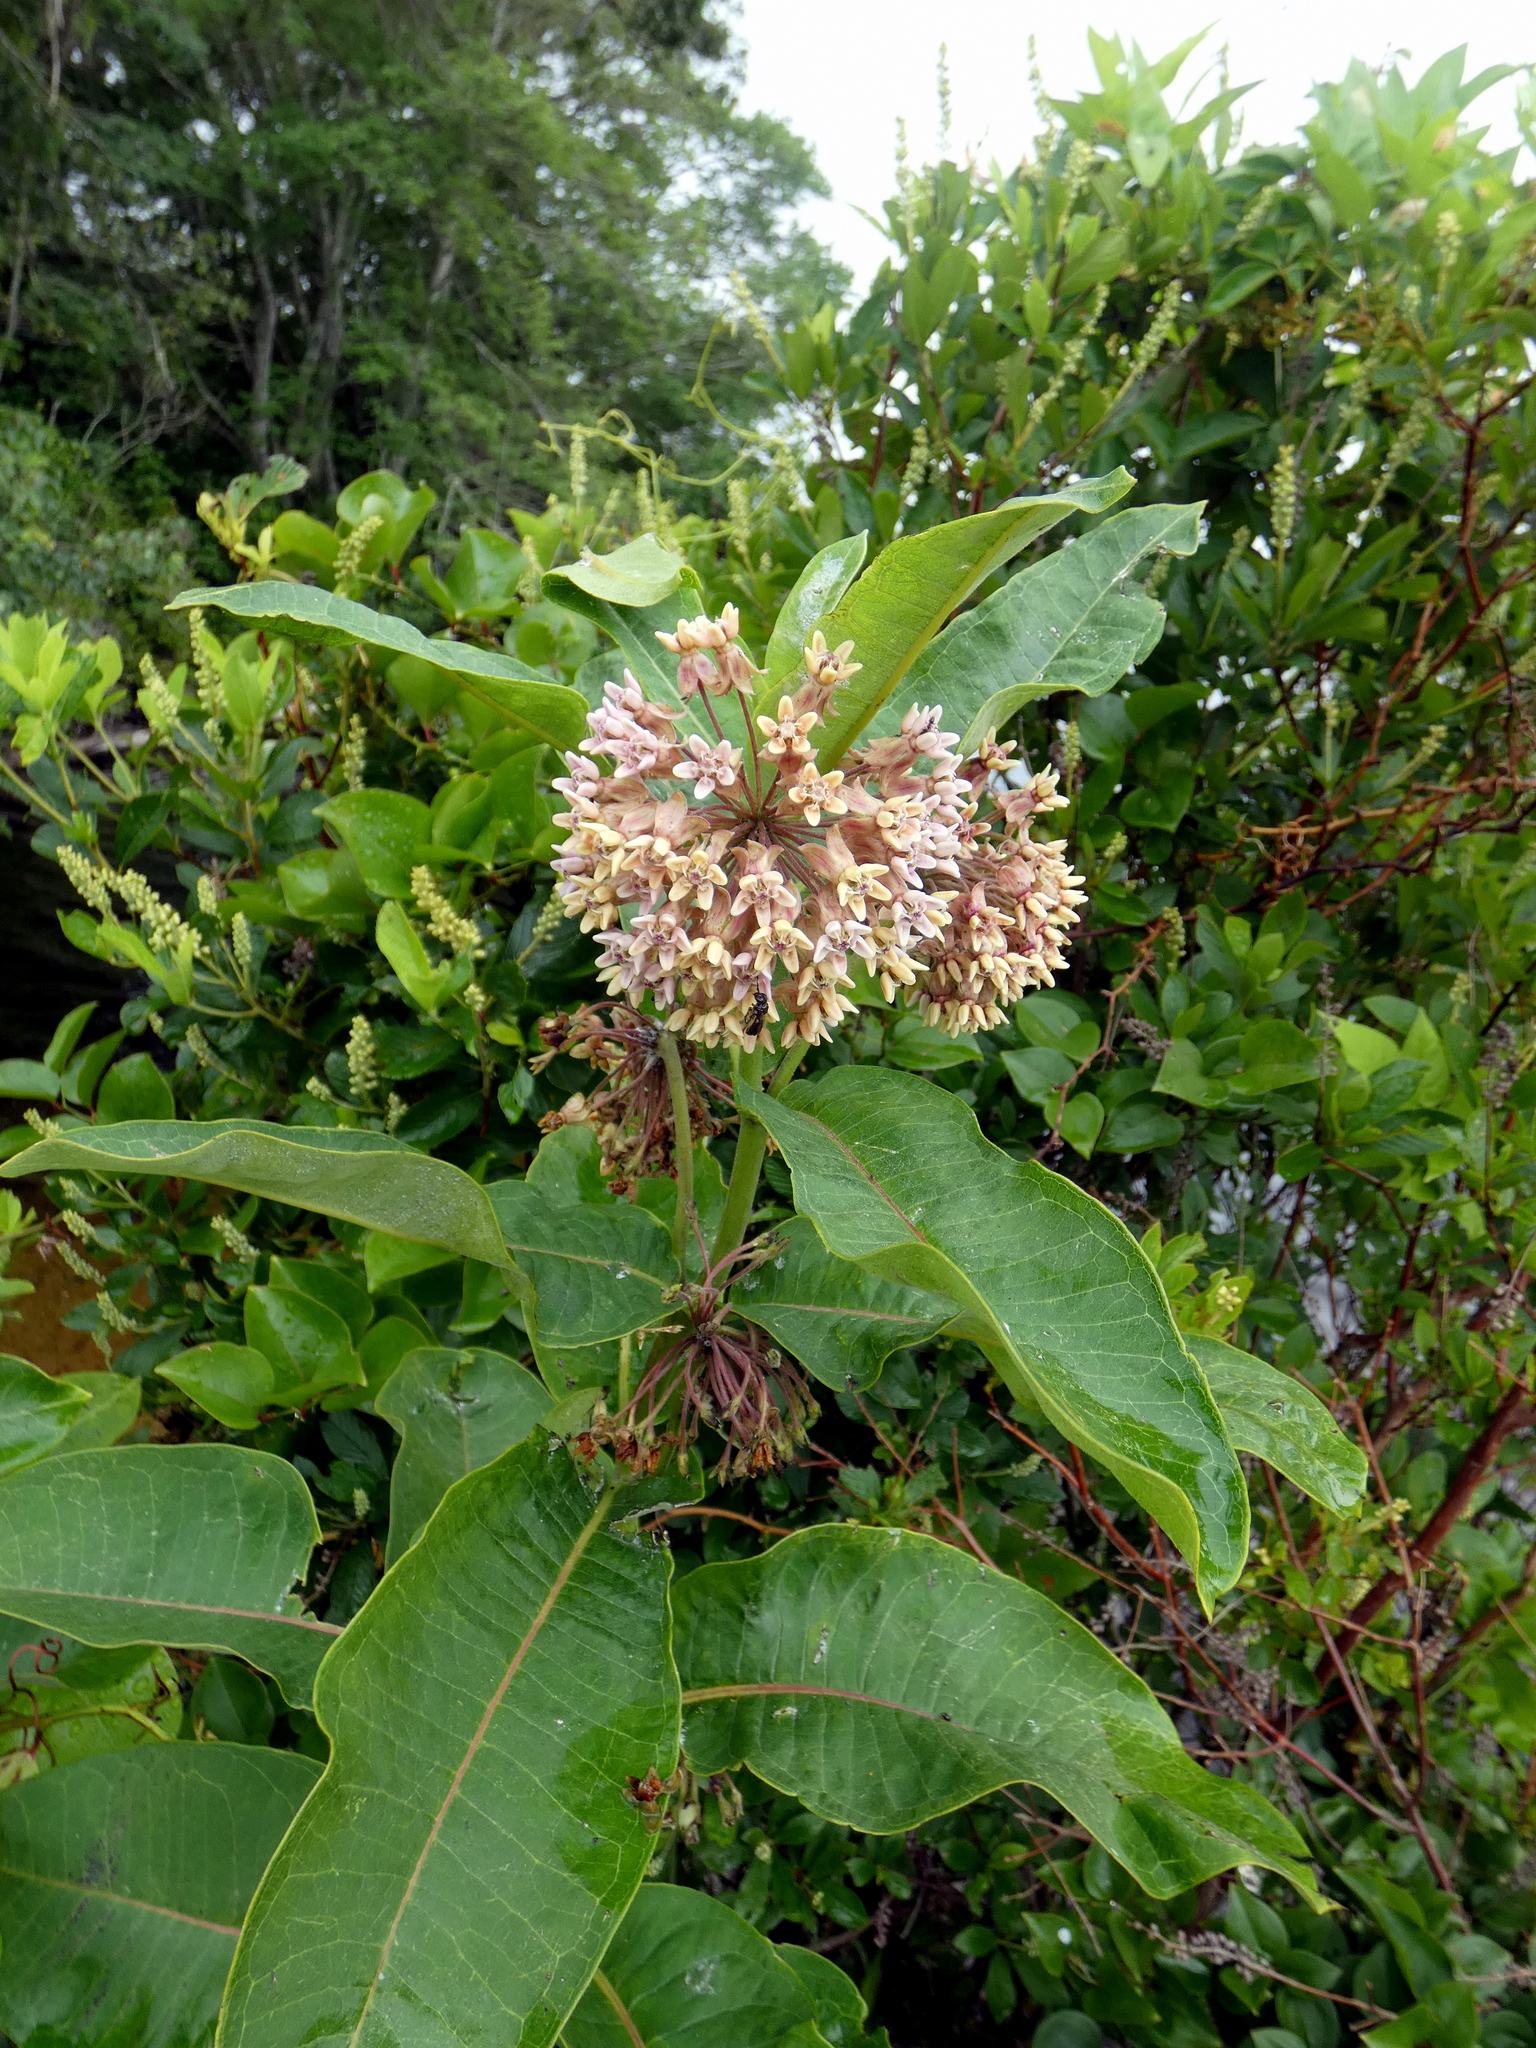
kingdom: Plantae
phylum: Tracheophyta
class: Magnoliopsida
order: Gentianales
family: Apocynaceae
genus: Asclepias
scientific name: Asclepias syriaca
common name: Common milkweed
